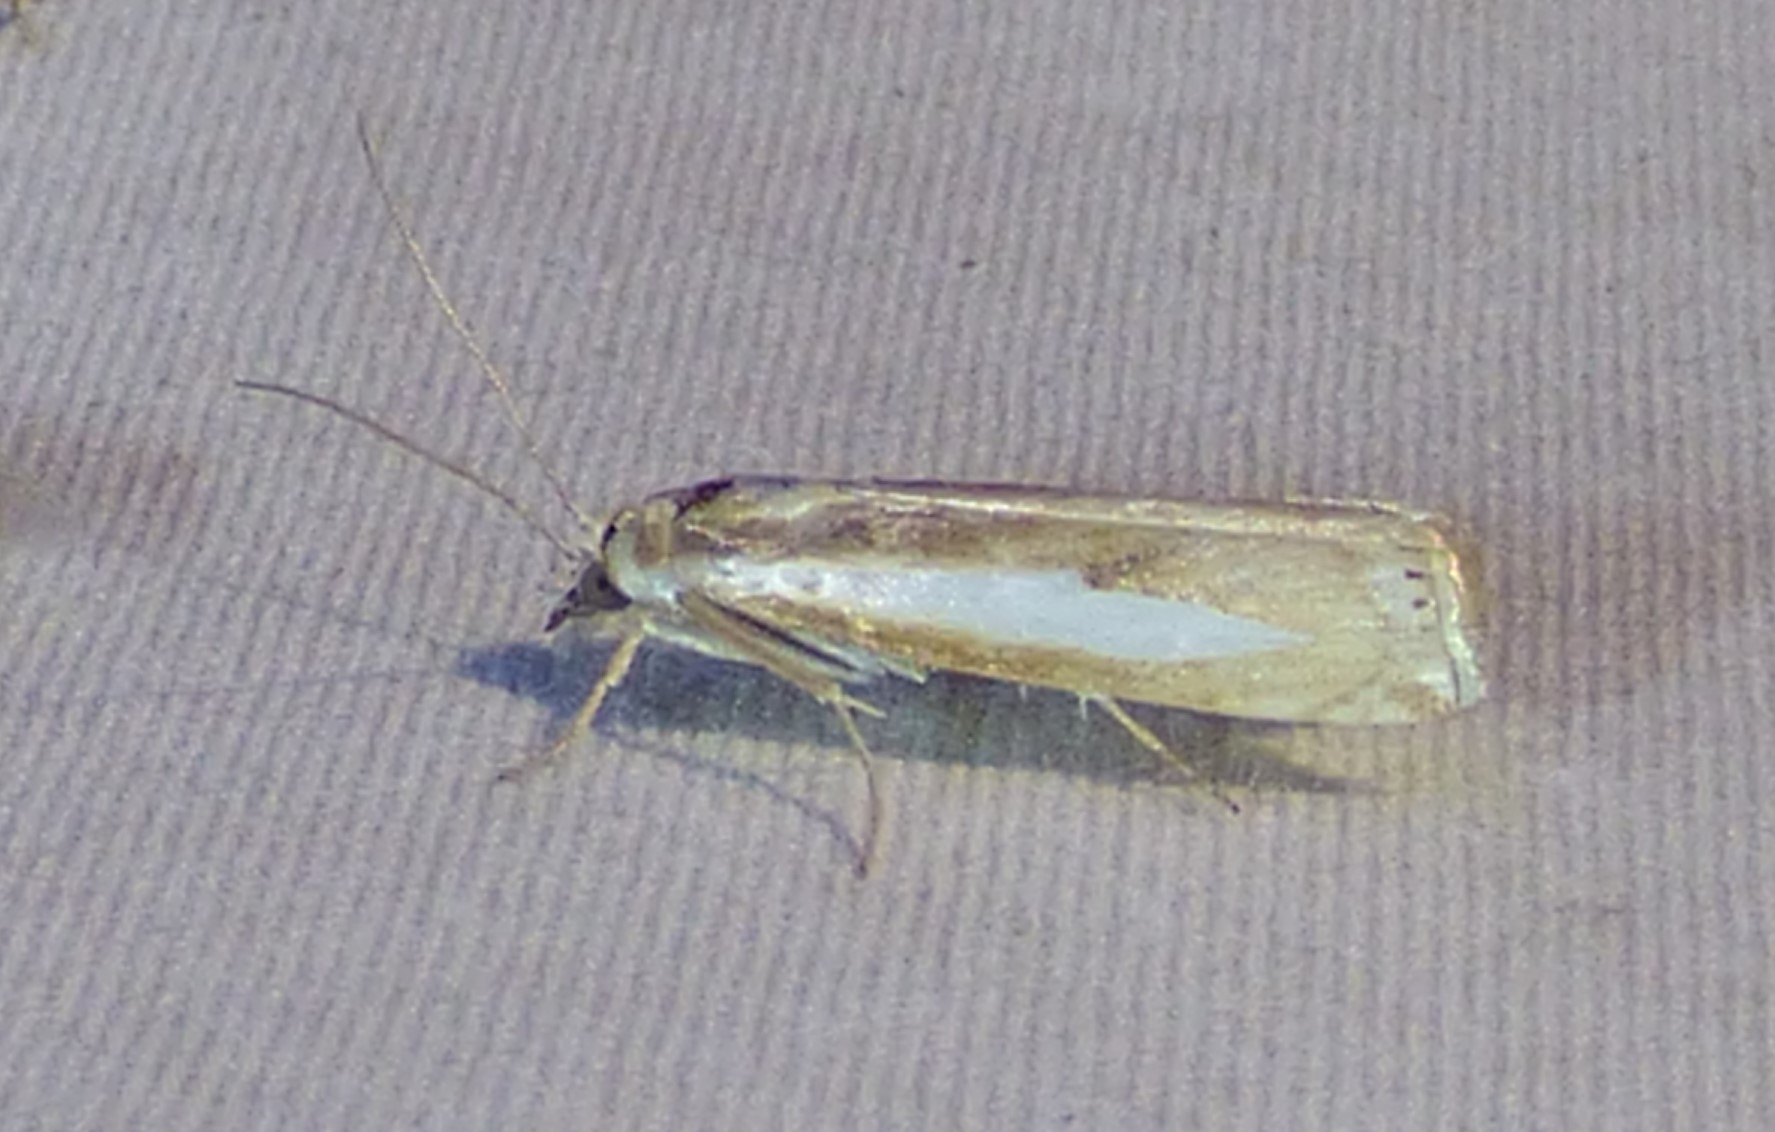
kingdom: Animalia
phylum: Arthropoda
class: Insecta
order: Lepidoptera
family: Crambidae
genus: Crambus
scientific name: Crambus praefectellus
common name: Common grass-veneer
